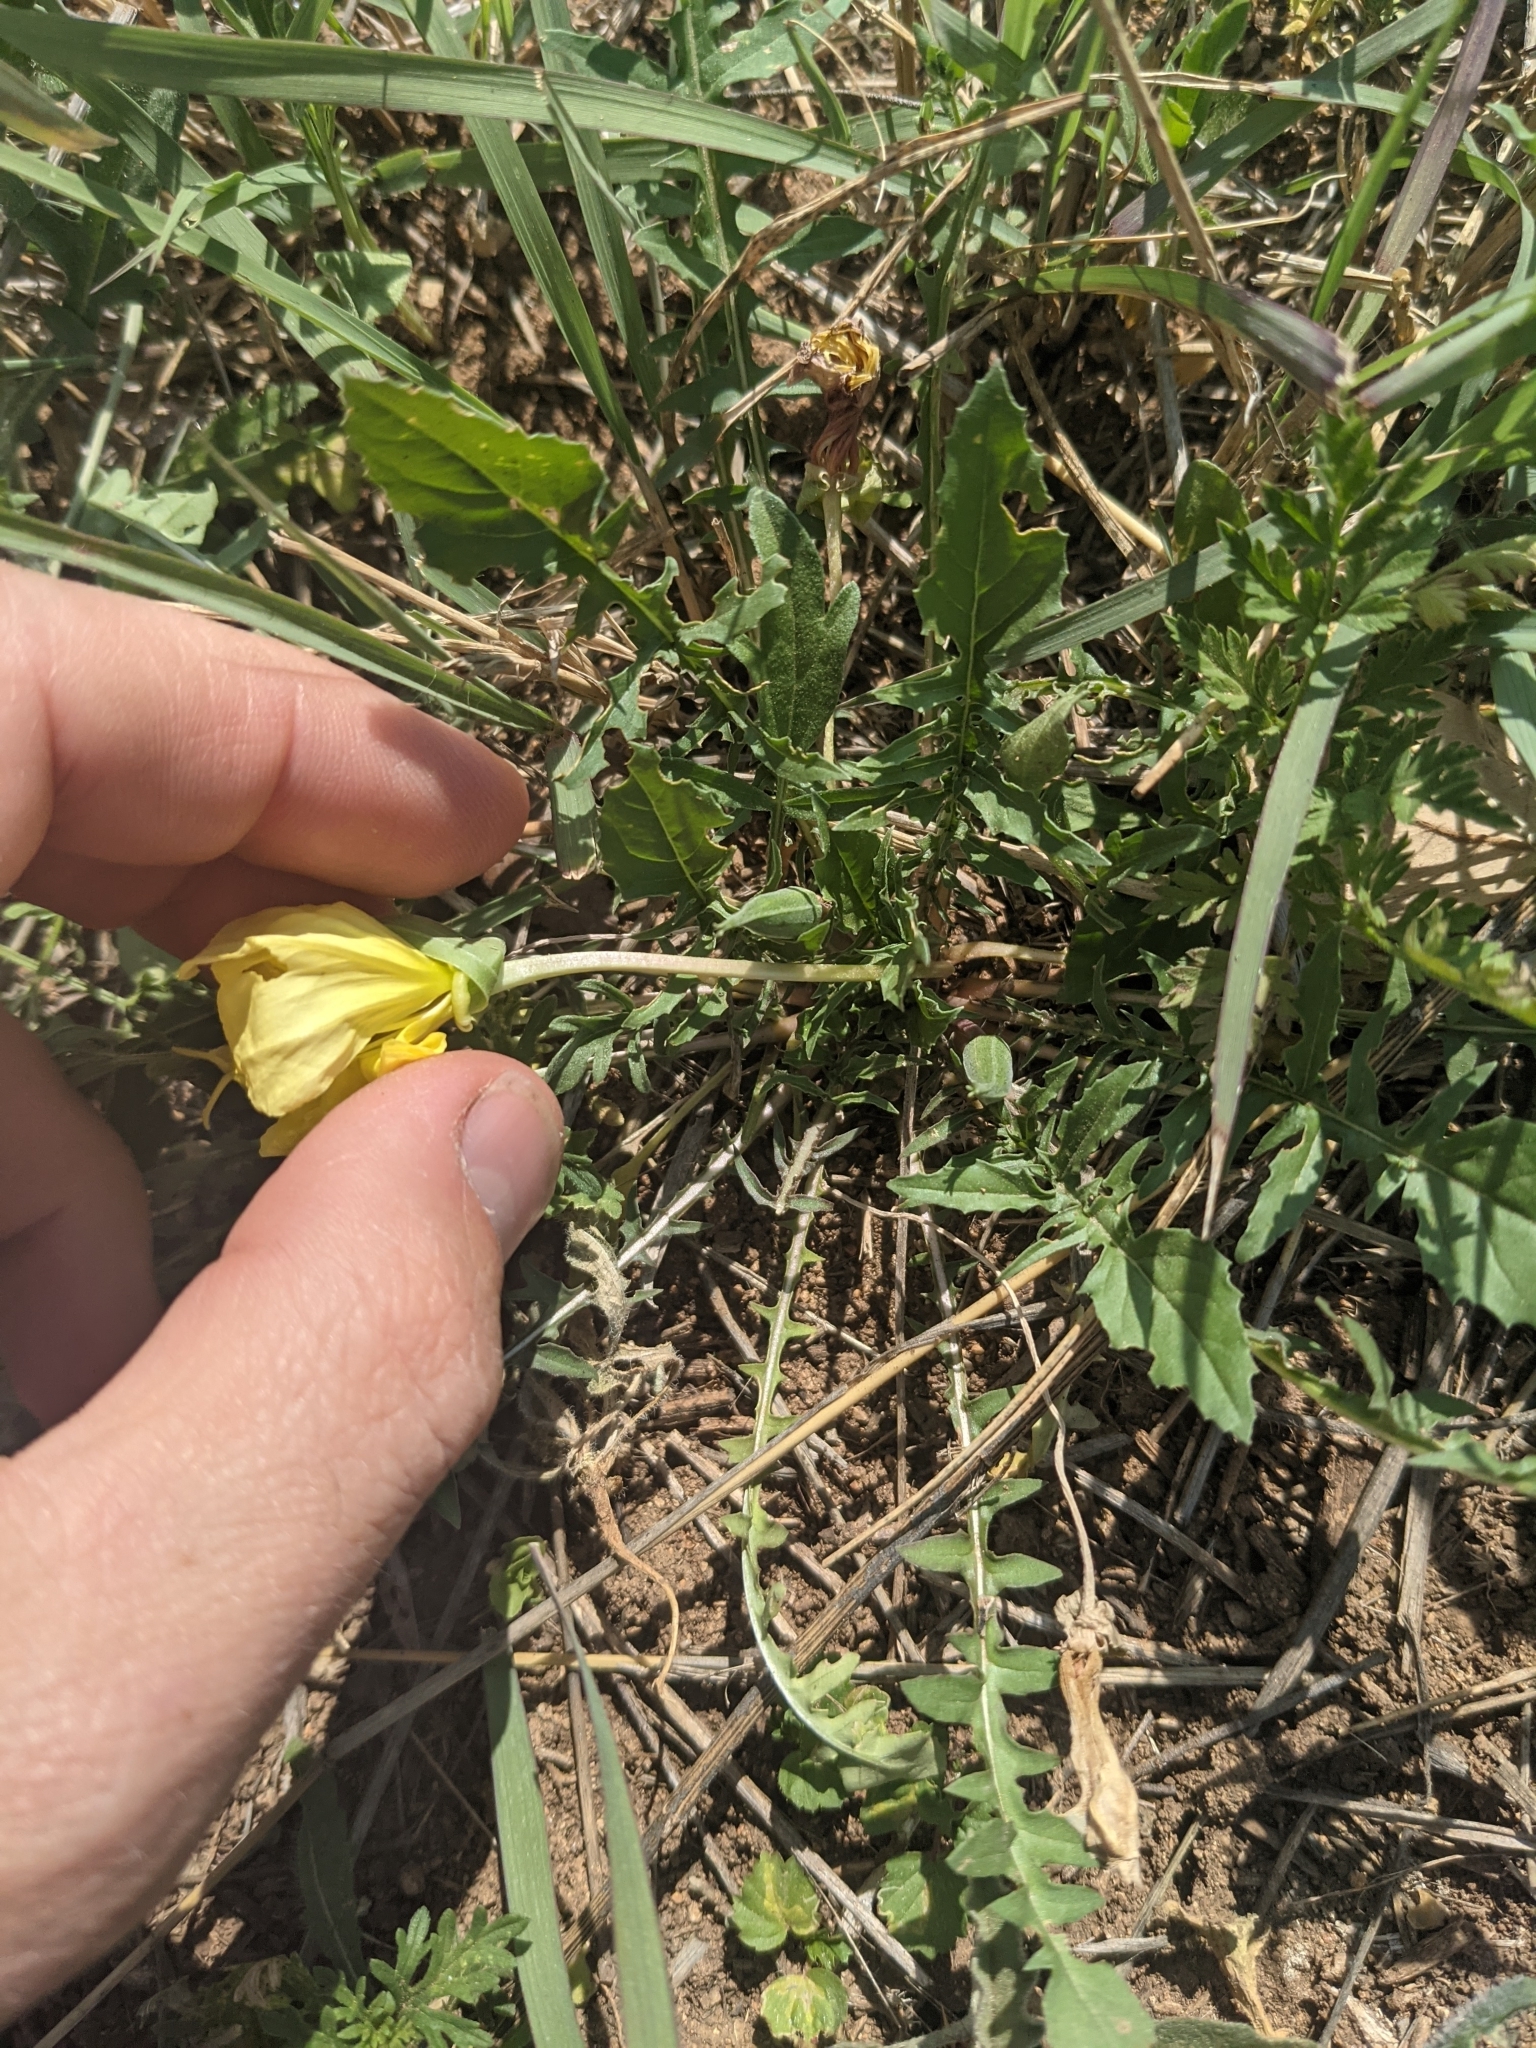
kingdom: Plantae
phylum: Tracheophyta
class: Magnoliopsida
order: Myrtales
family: Onagraceae
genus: Oenothera
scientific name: Oenothera triloba
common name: Sessile evening-primrose
